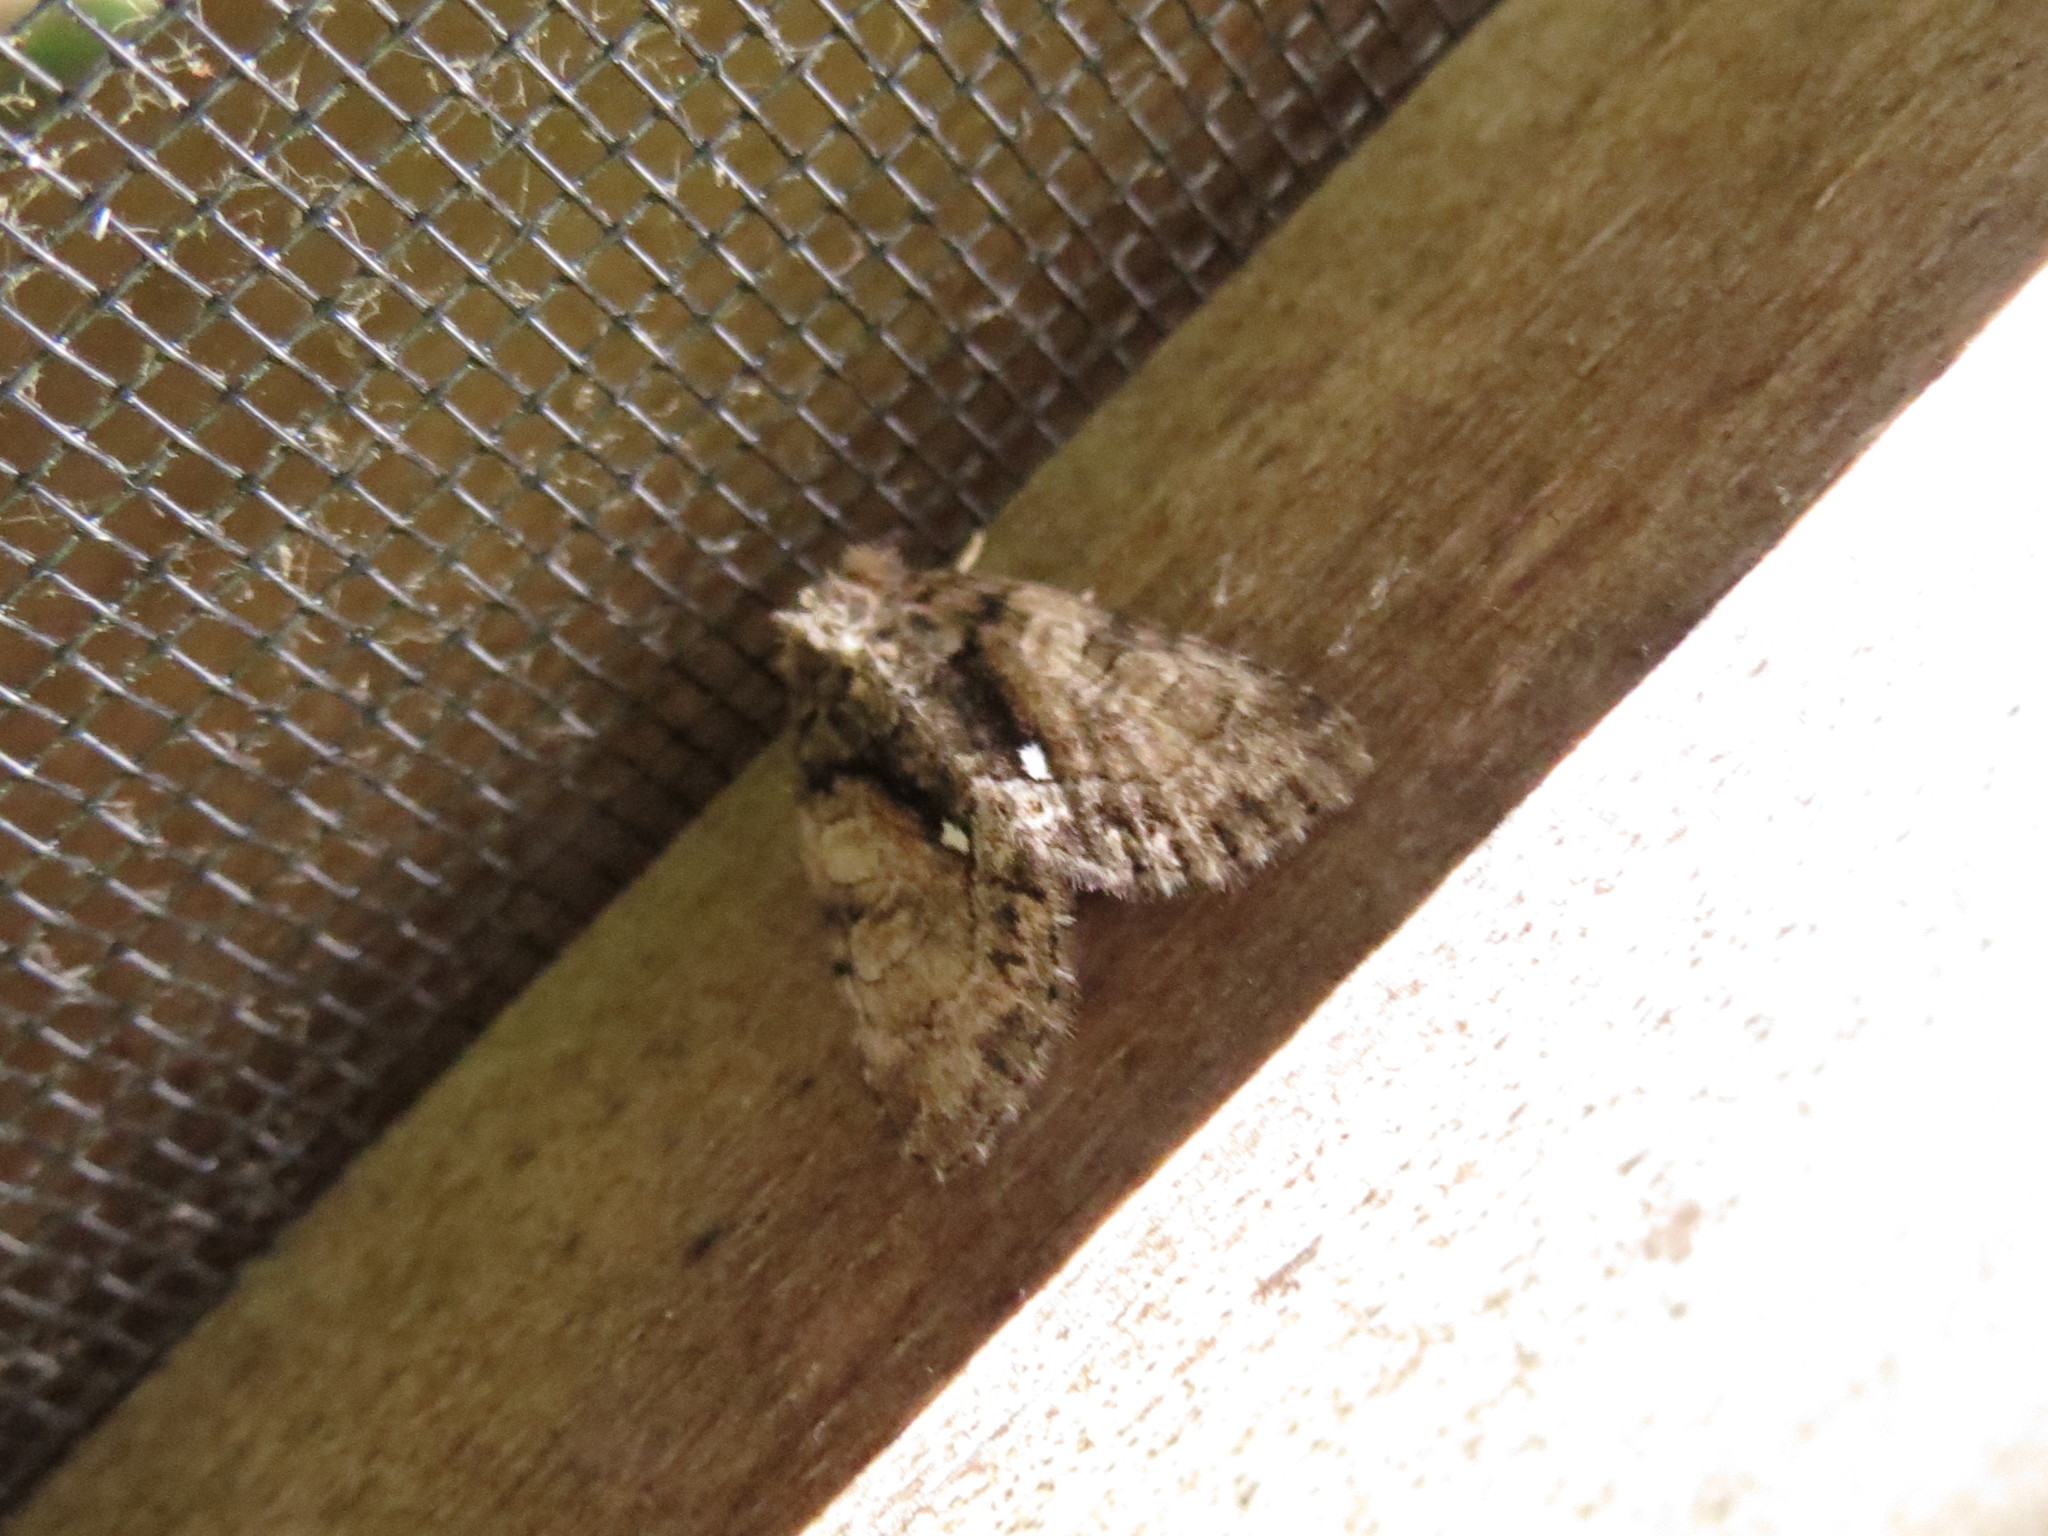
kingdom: Animalia
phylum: Arthropoda
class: Insecta
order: Lepidoptera
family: Noctuidae
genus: Chytonix
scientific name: Chytonix palliatricula
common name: Cloaked marvel
